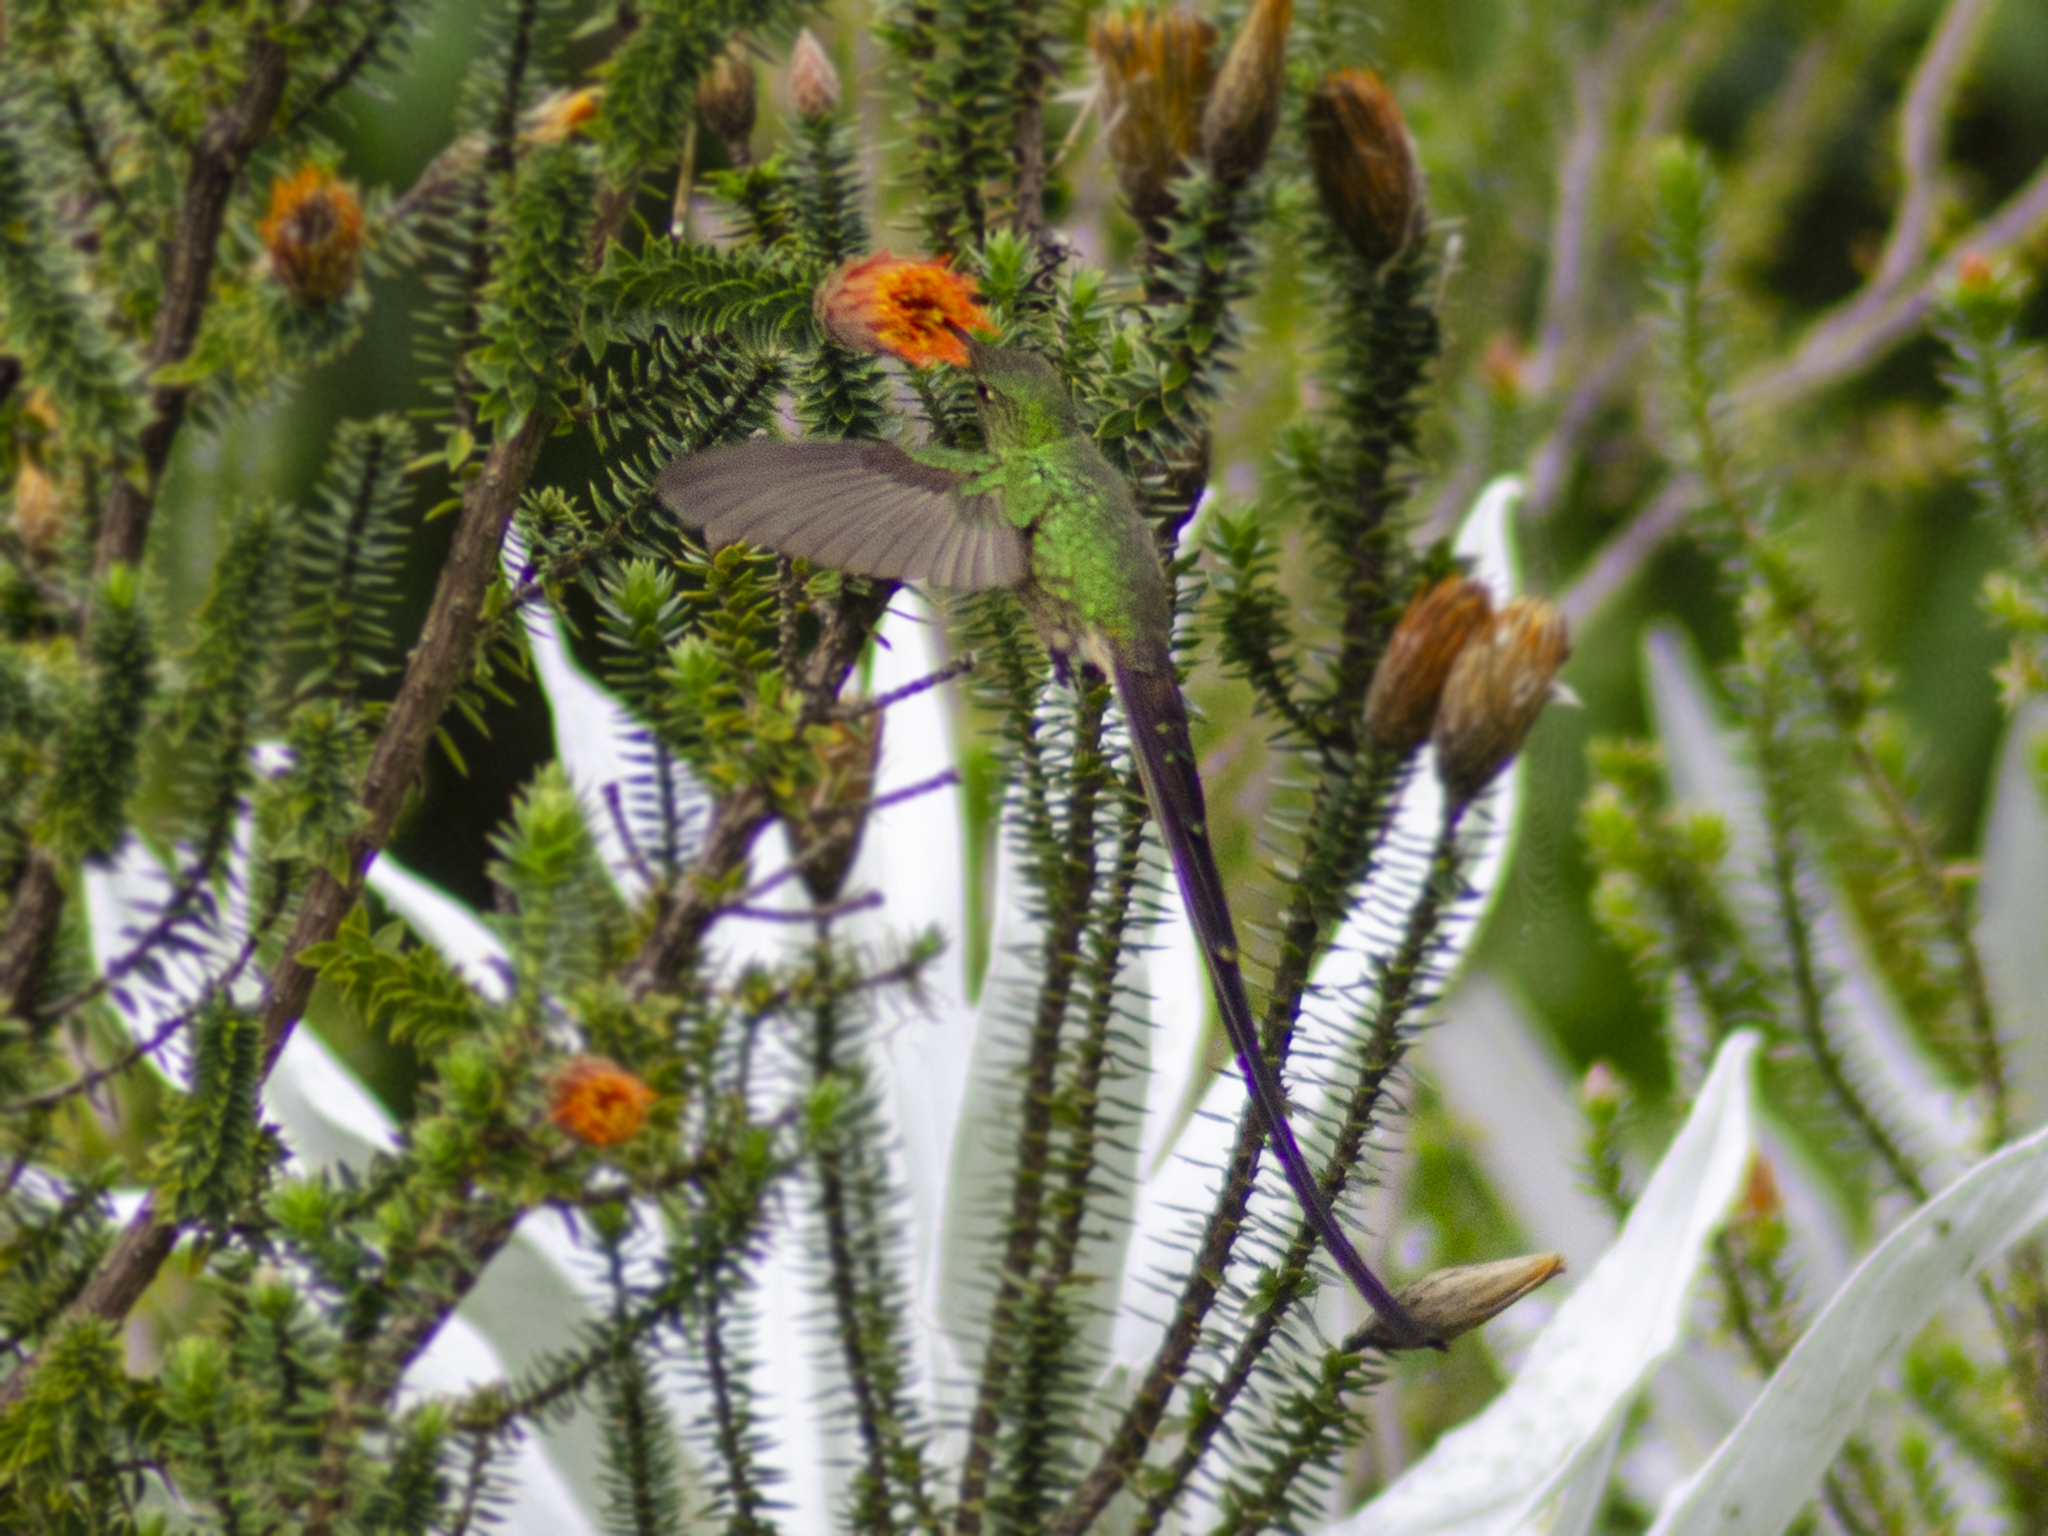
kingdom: Animalia
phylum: Chordata
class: Aves
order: Apodiformes
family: Trochilidae
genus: Lesbia
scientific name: Lesbia victoriae
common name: Black-tailed trainbearer
